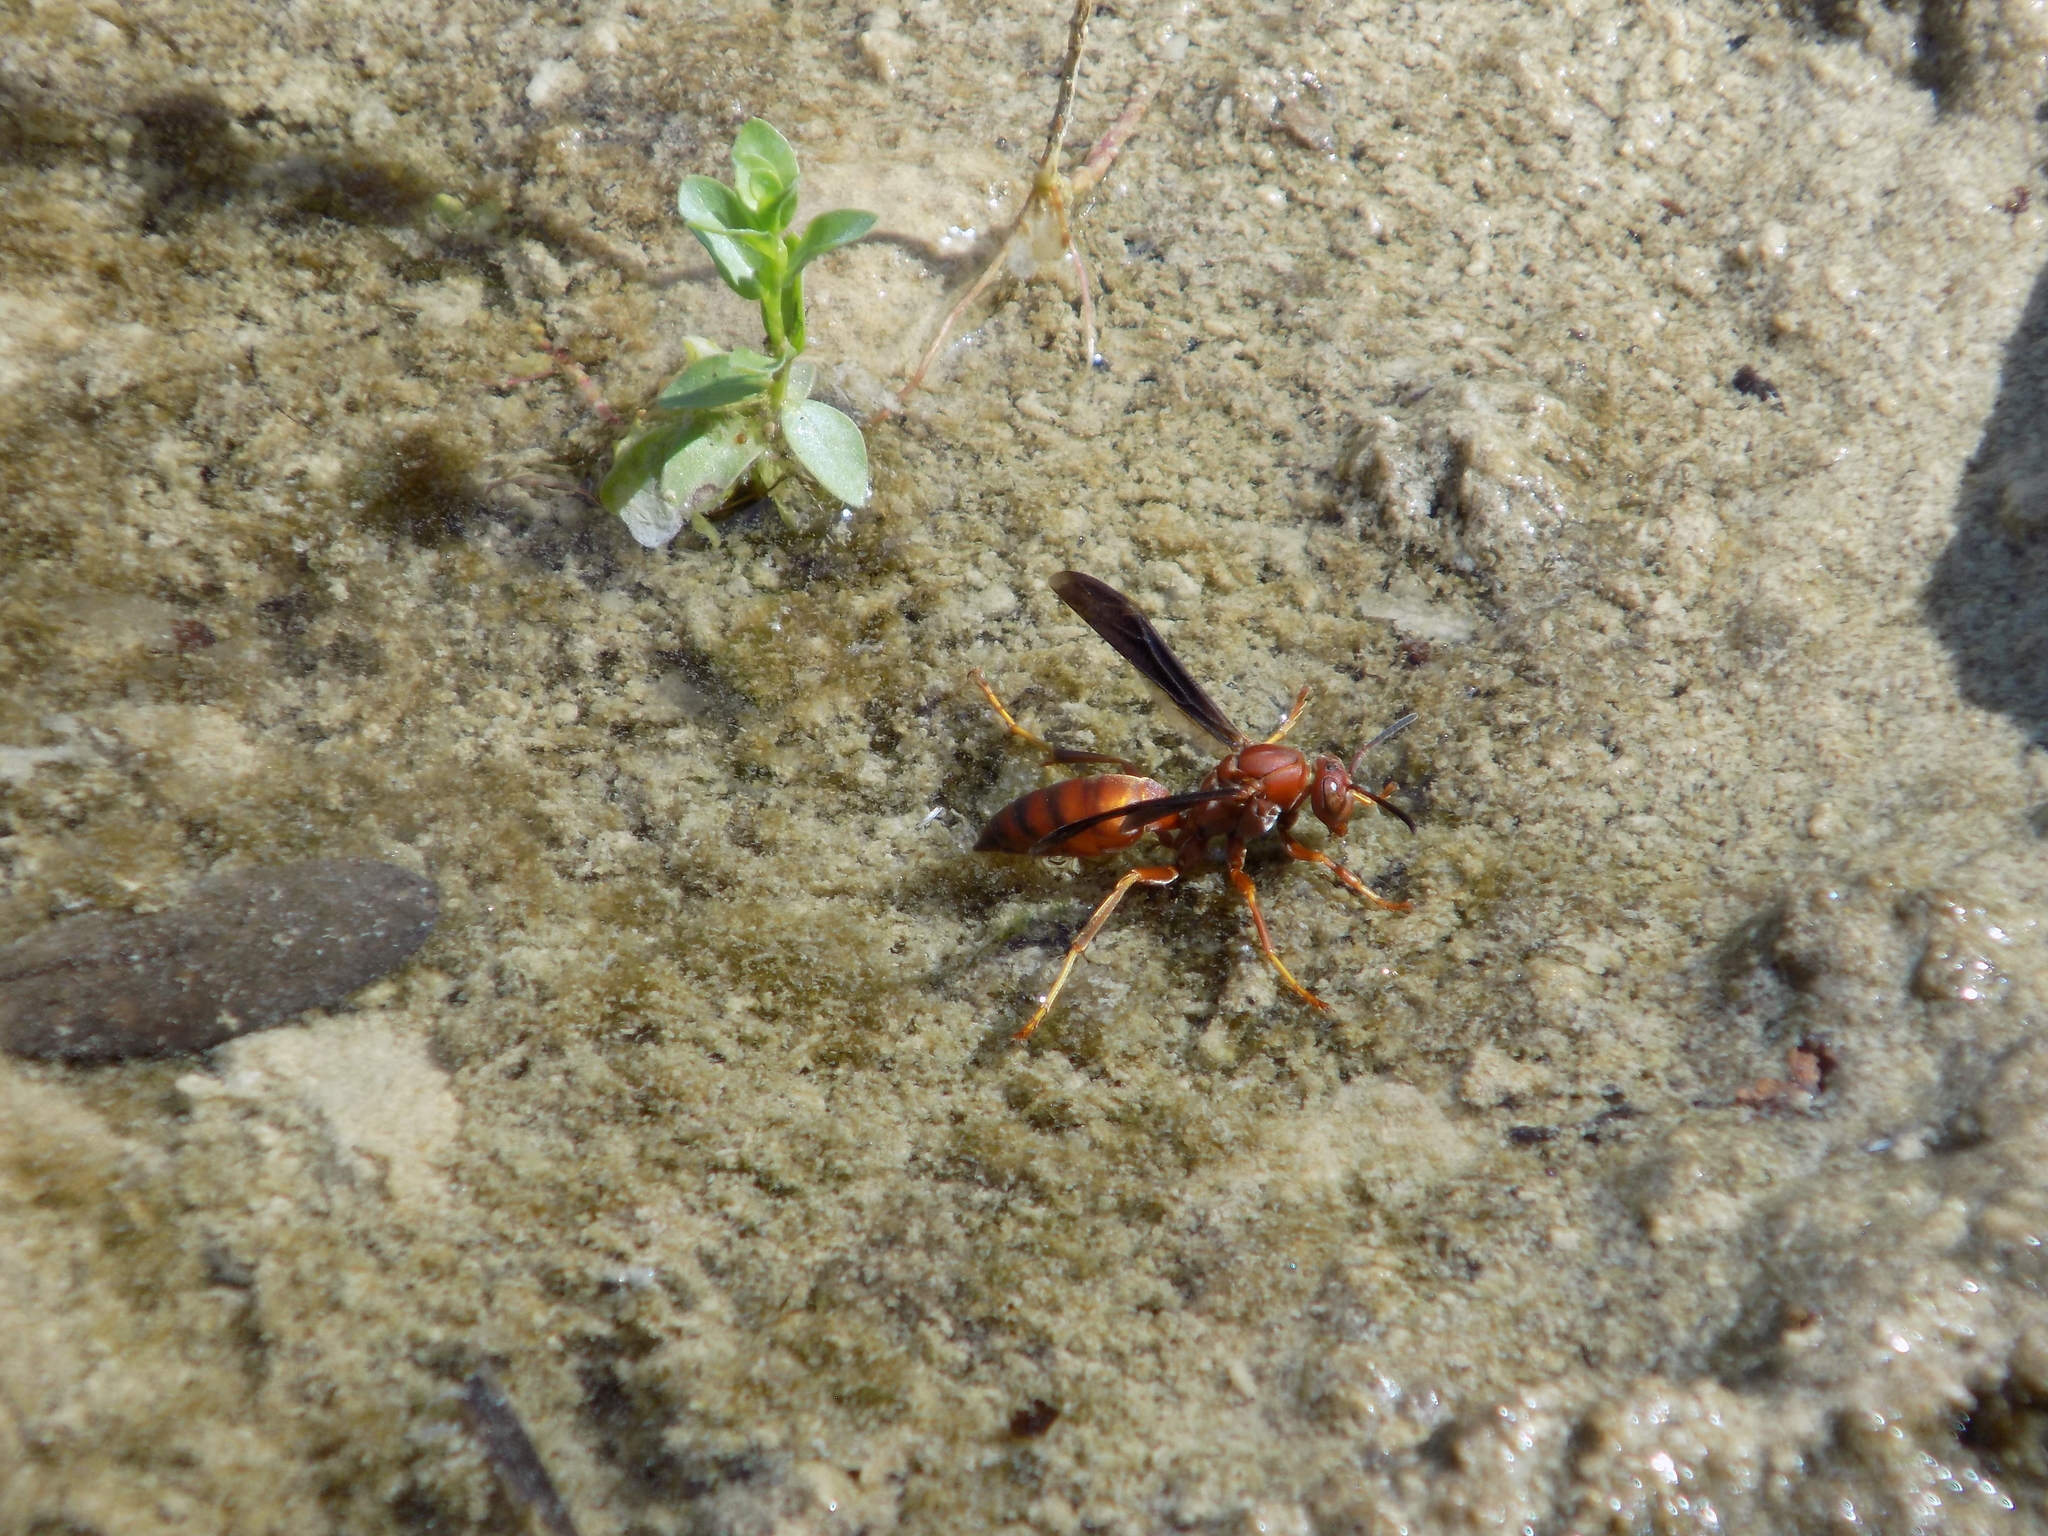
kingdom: Animalia
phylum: Arthropoda
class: Insecta
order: Hymenoptera
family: Vespidae
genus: Fuscopolistes
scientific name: Fuscopolistes
